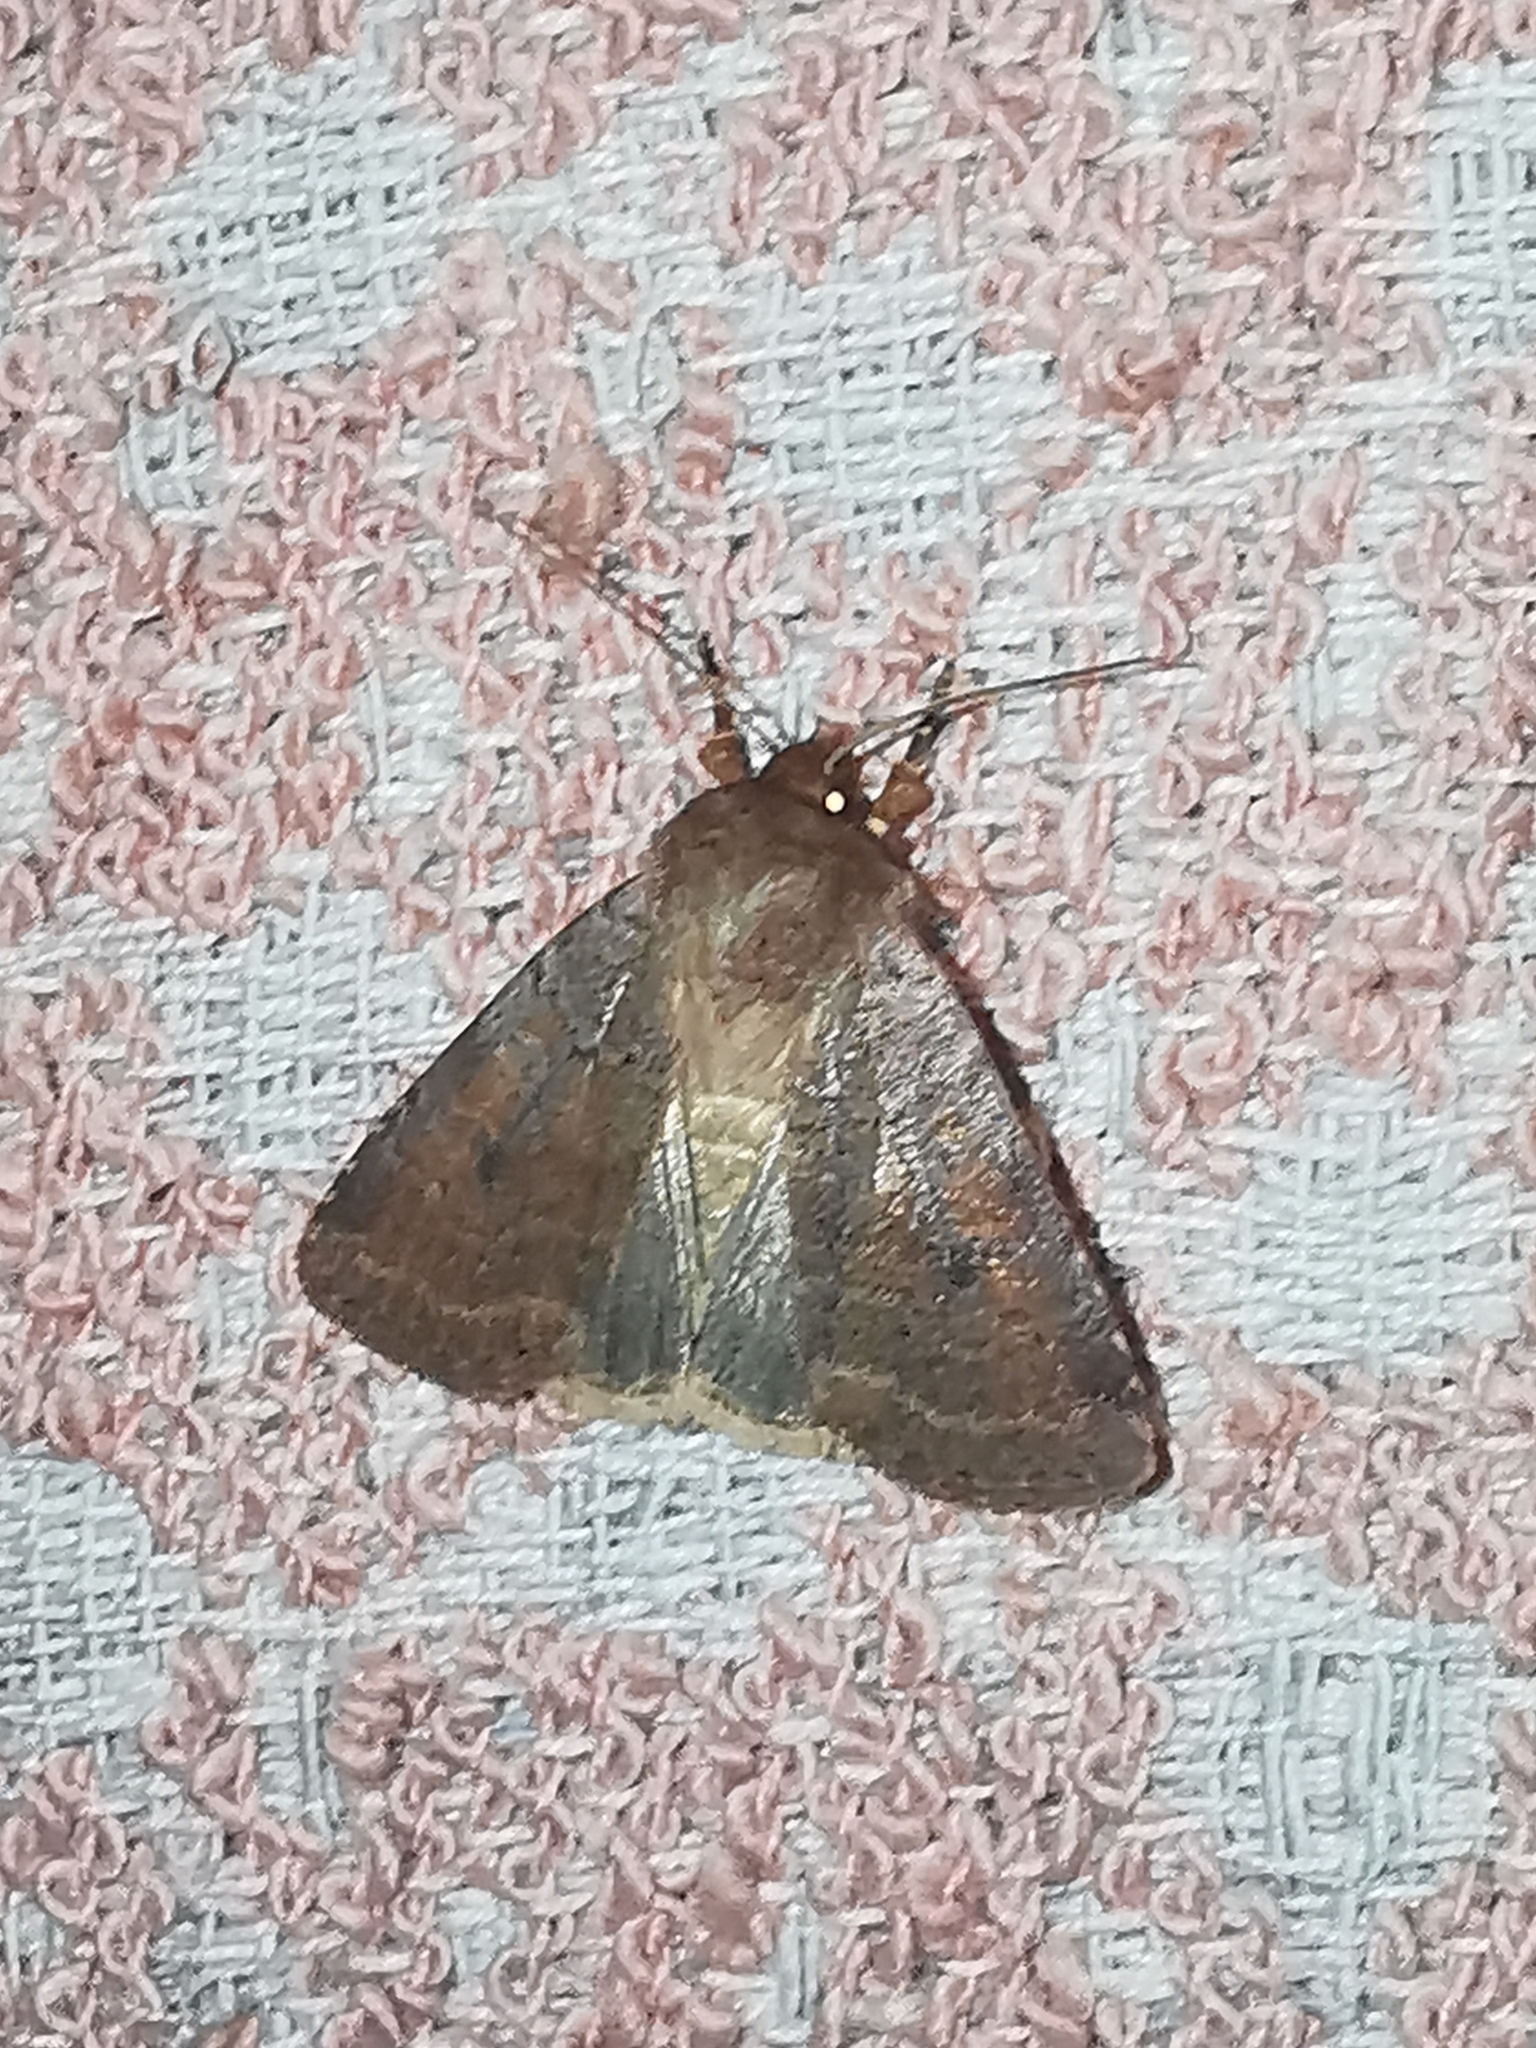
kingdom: Animalia
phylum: Arthropoda
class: Insecta
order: Lepidoptera
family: Noctuidae
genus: Protolampra
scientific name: Protolampra sobrina
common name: Cousin german
